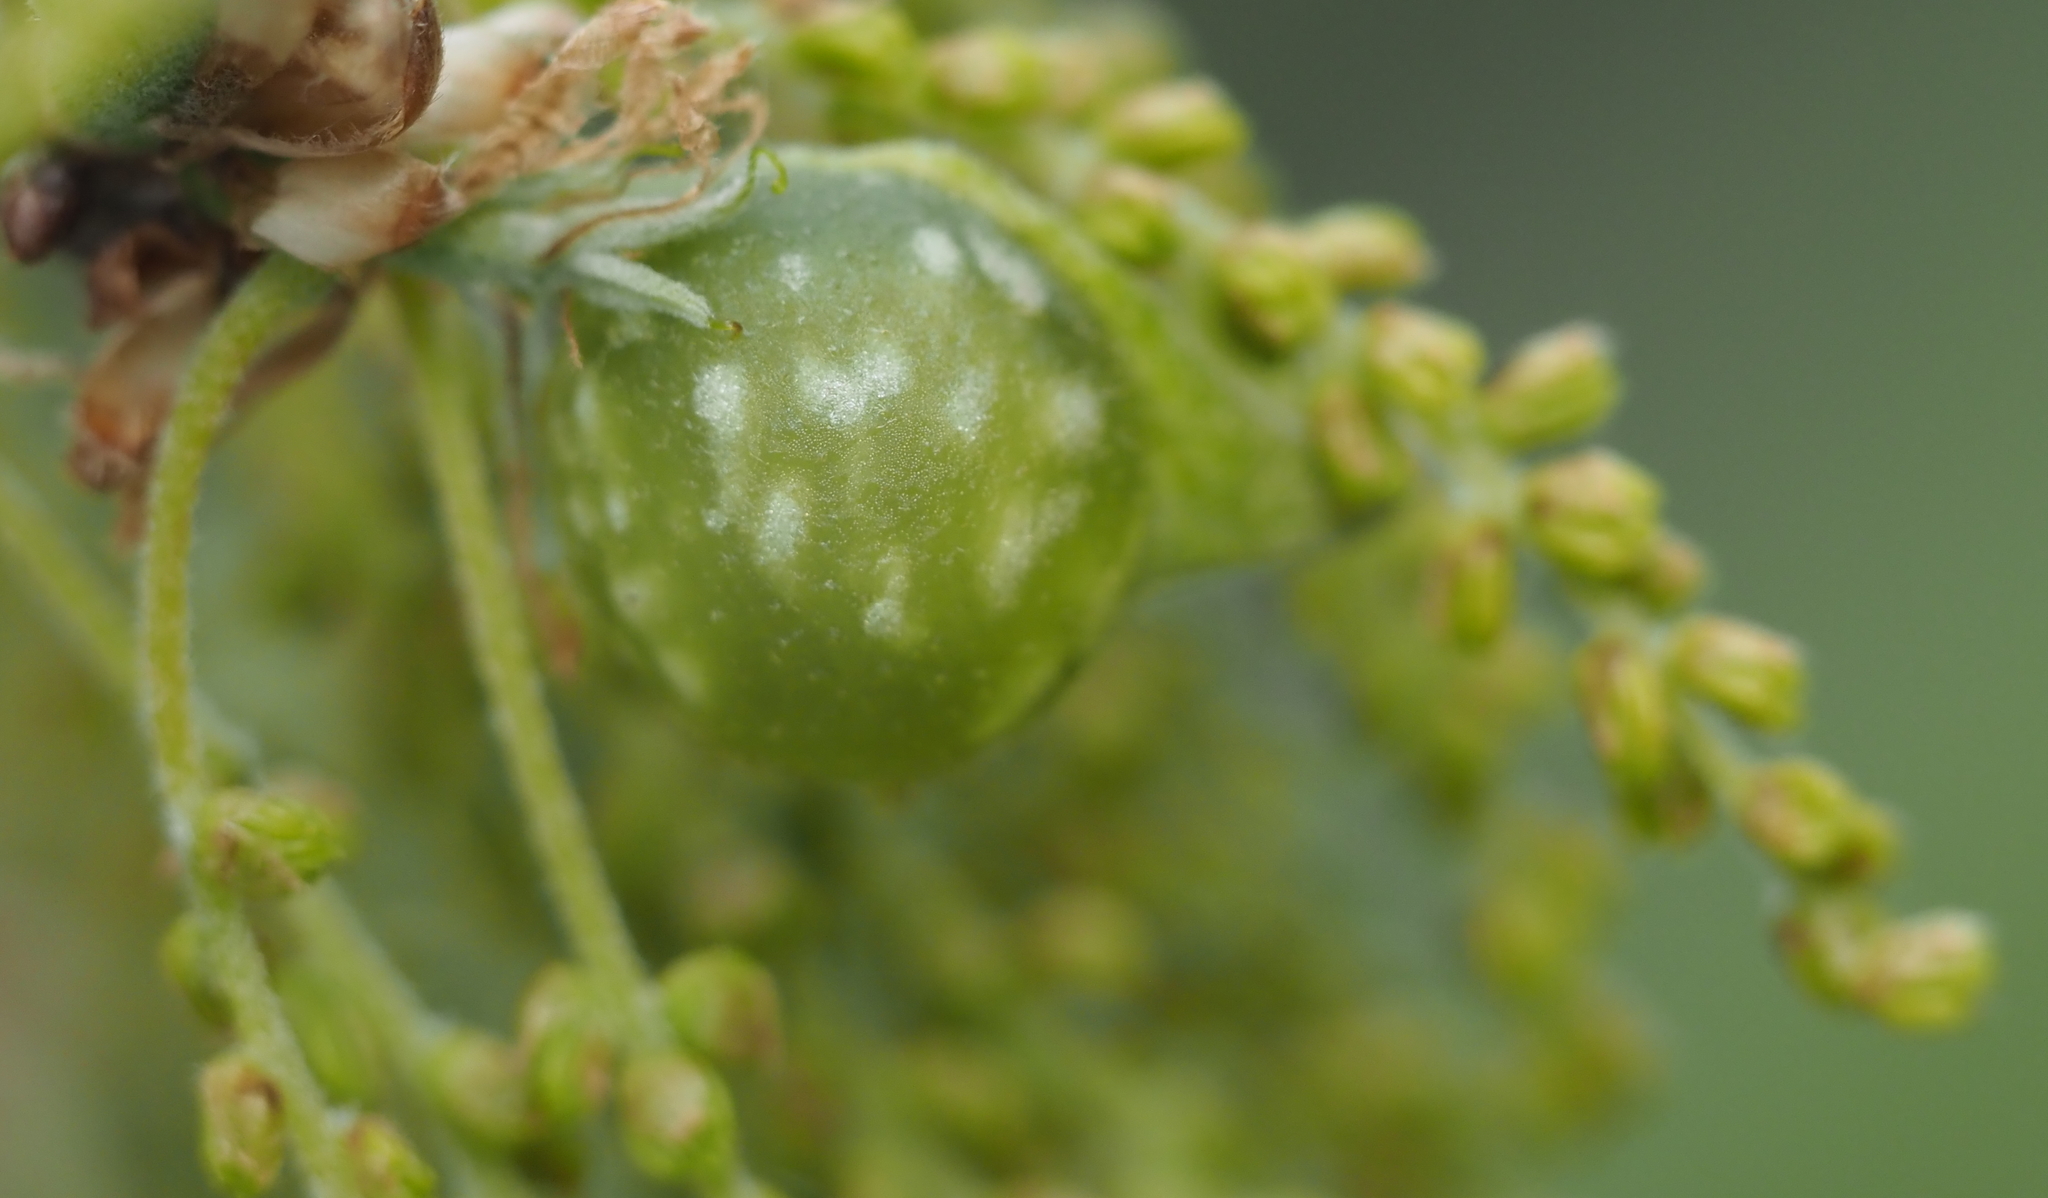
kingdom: Animalia
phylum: Arthropoda
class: Insecta
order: Hymenoptera
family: Cynipidae
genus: Dryocosmus
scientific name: Dryocosmus quercuspalustris
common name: Succulent oak gall wasp
